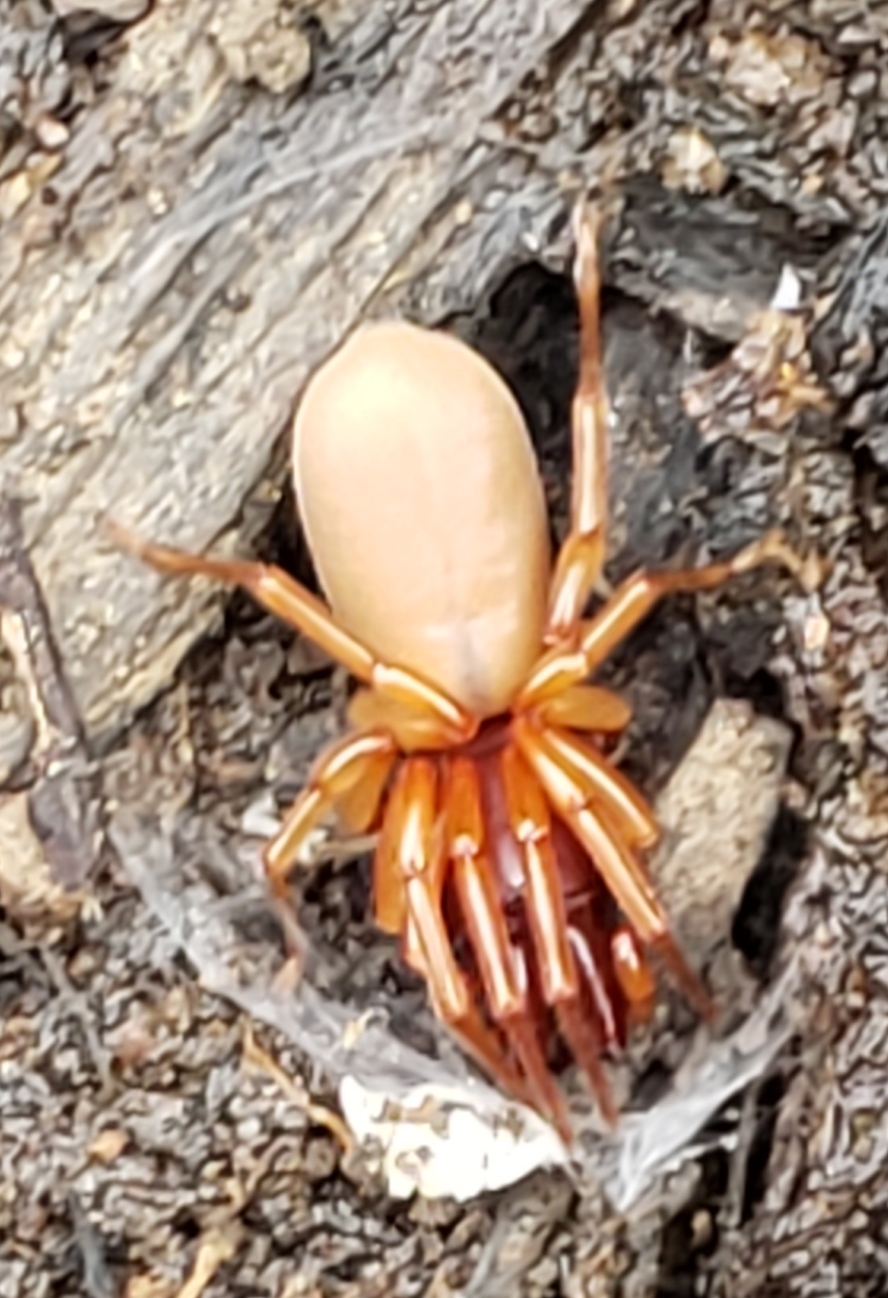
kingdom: Animalia
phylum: Arthropoda
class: Arachnida
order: Araneae
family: Dysderidae
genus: Dysdera
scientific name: Dysdera crocata
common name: Woodlouse spider
